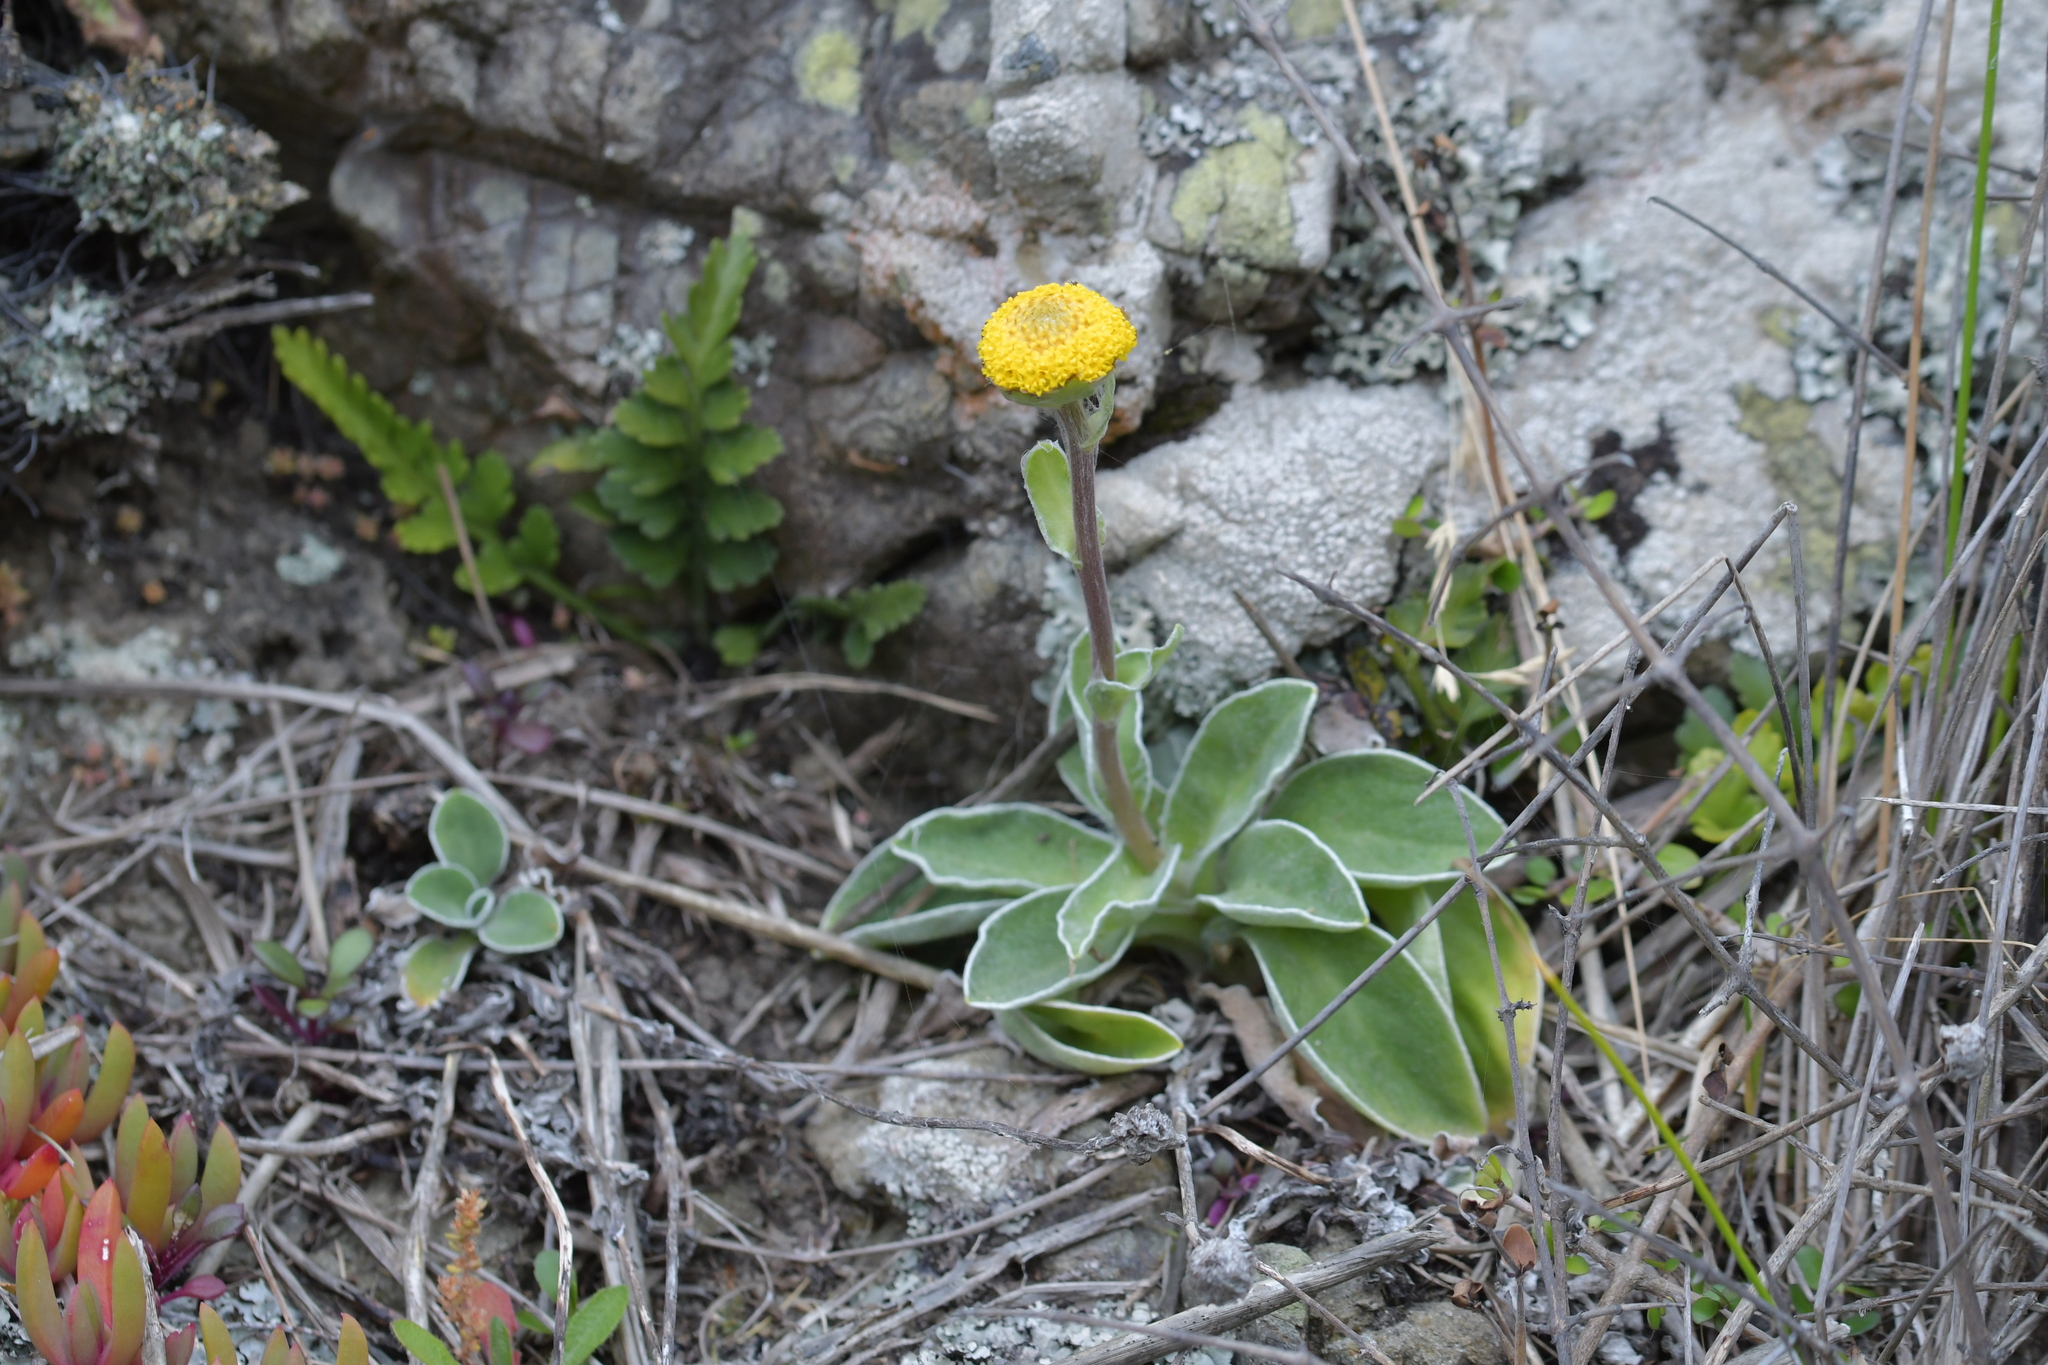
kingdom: Plantae
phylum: Tracheophyta
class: Magnoliopsida
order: Asterales
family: Asteraceae
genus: Craspedia
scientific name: Craspedia uniflora
